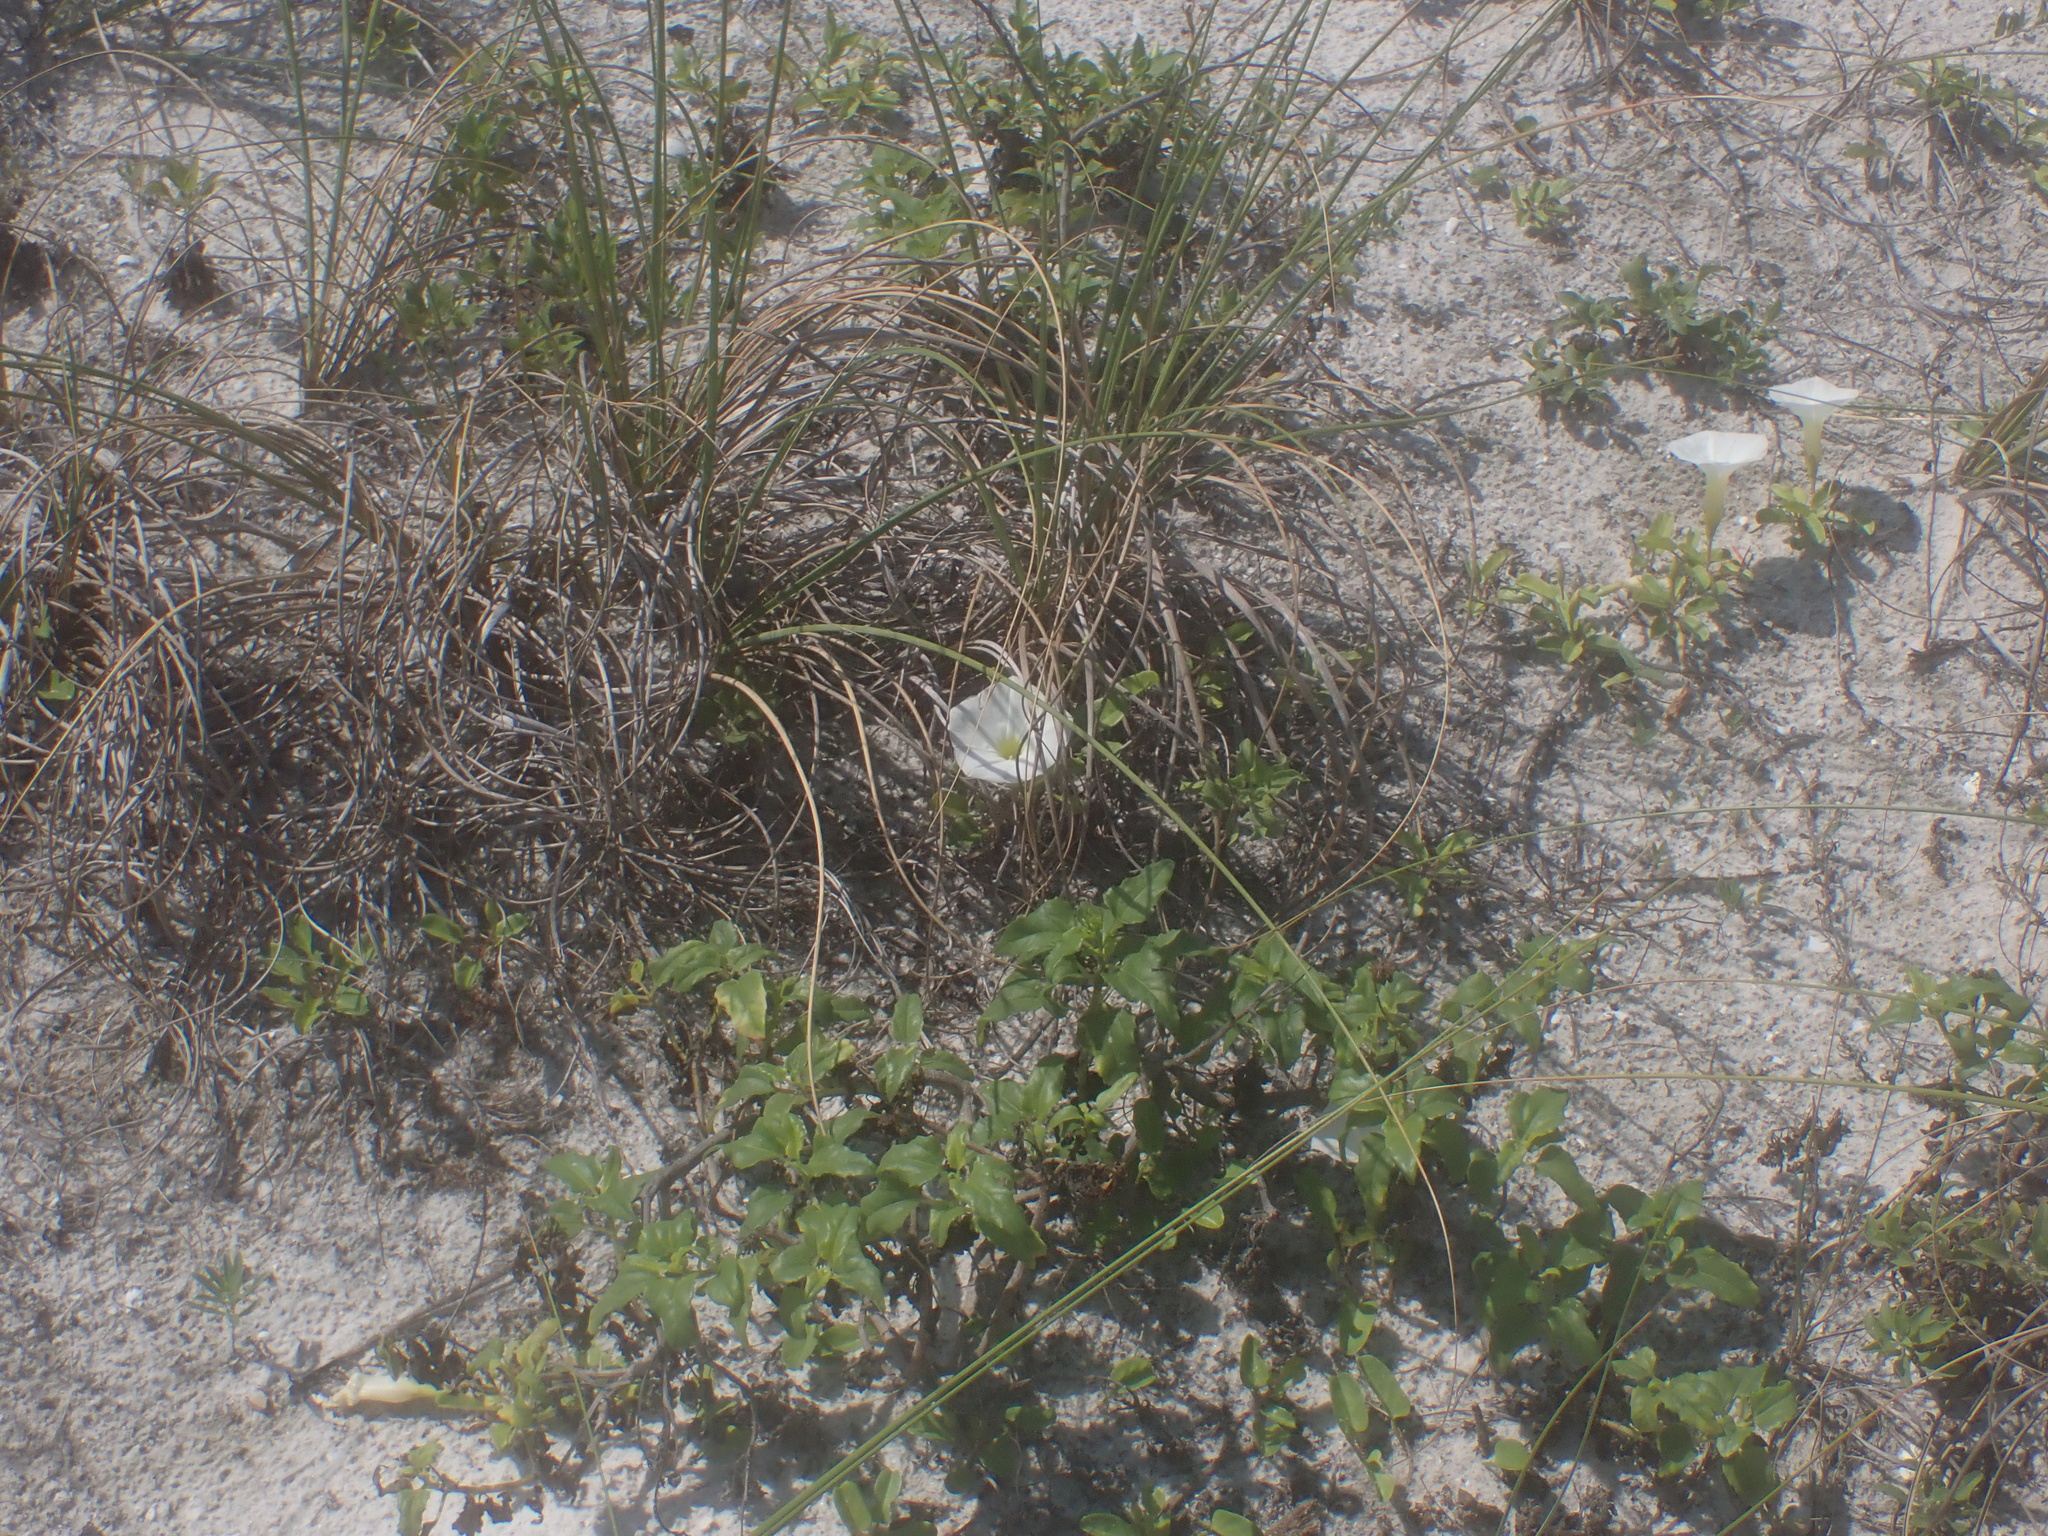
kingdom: Plantae
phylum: Tracheophyta
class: Magnoliopsida
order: Solanales
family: Convolvulaceae
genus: Ipomoea
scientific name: Ipomoea imperati
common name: Fiddle-leaf morning-glory
